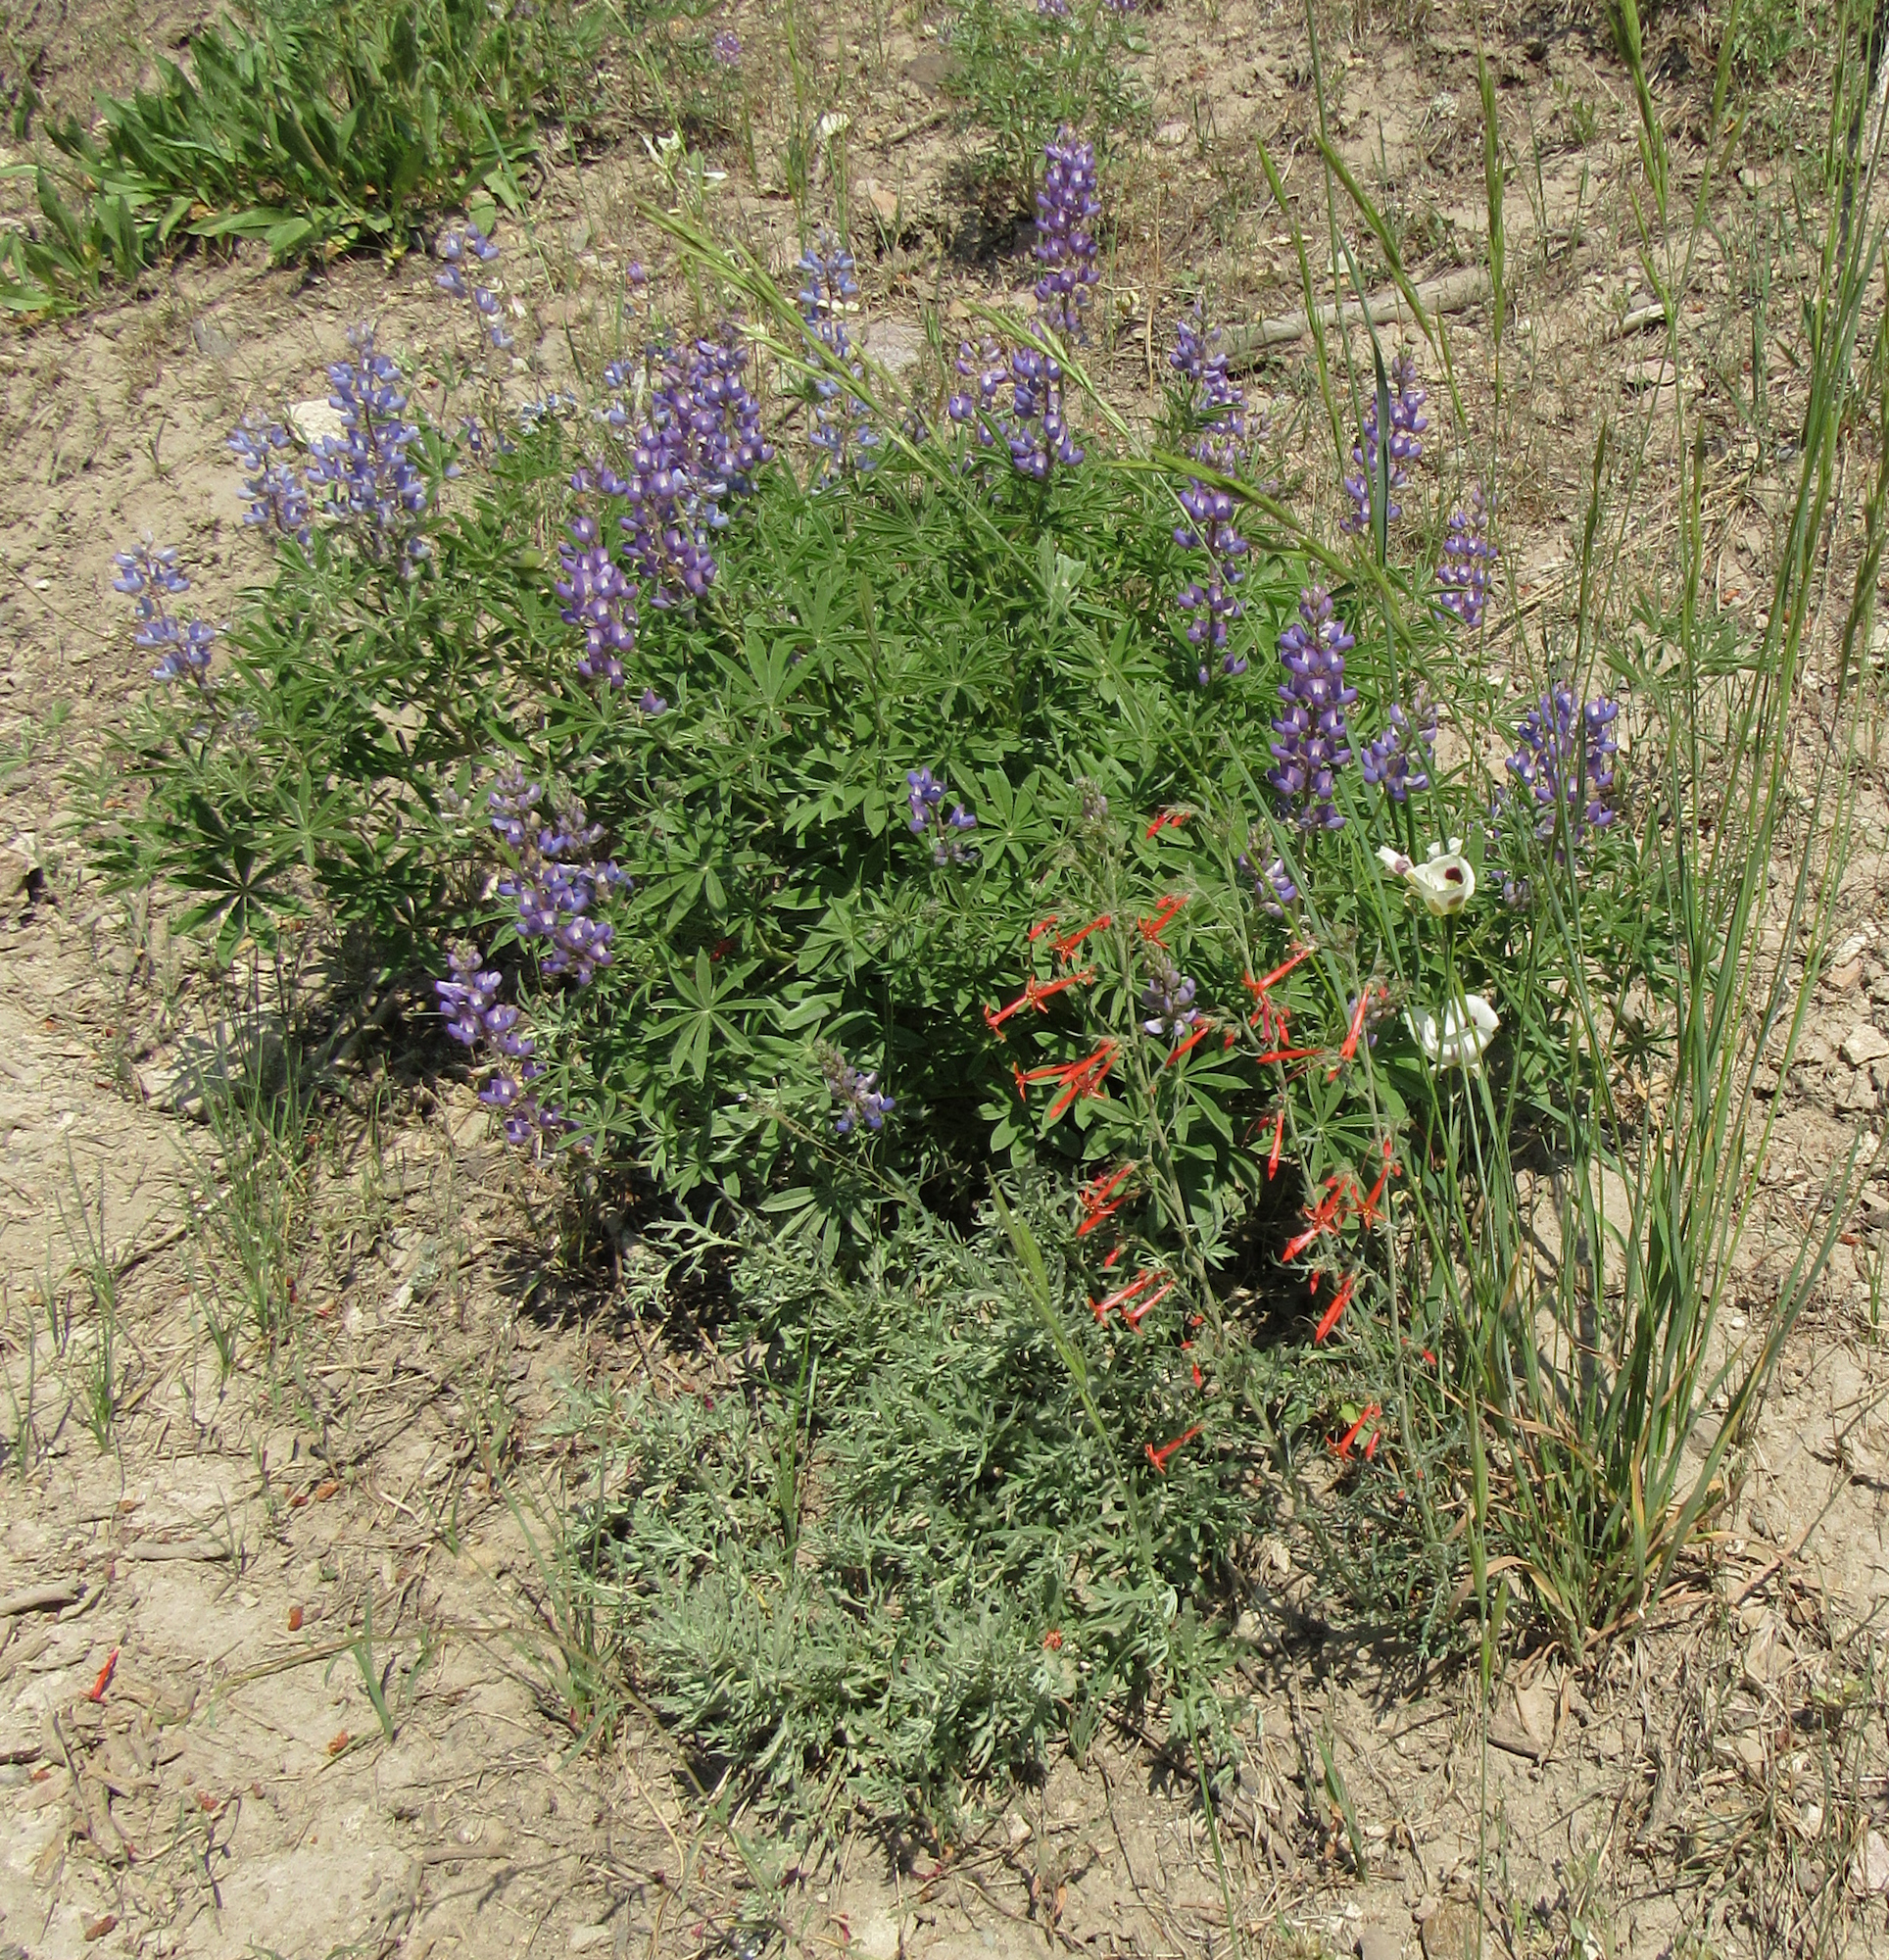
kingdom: Plantae
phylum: Tracheophyta
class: Magnoliopsida
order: Ericales
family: Polemoniaceae
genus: Ipomopsis
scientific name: Ipomopsis aggregata
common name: Scarlet gilia
